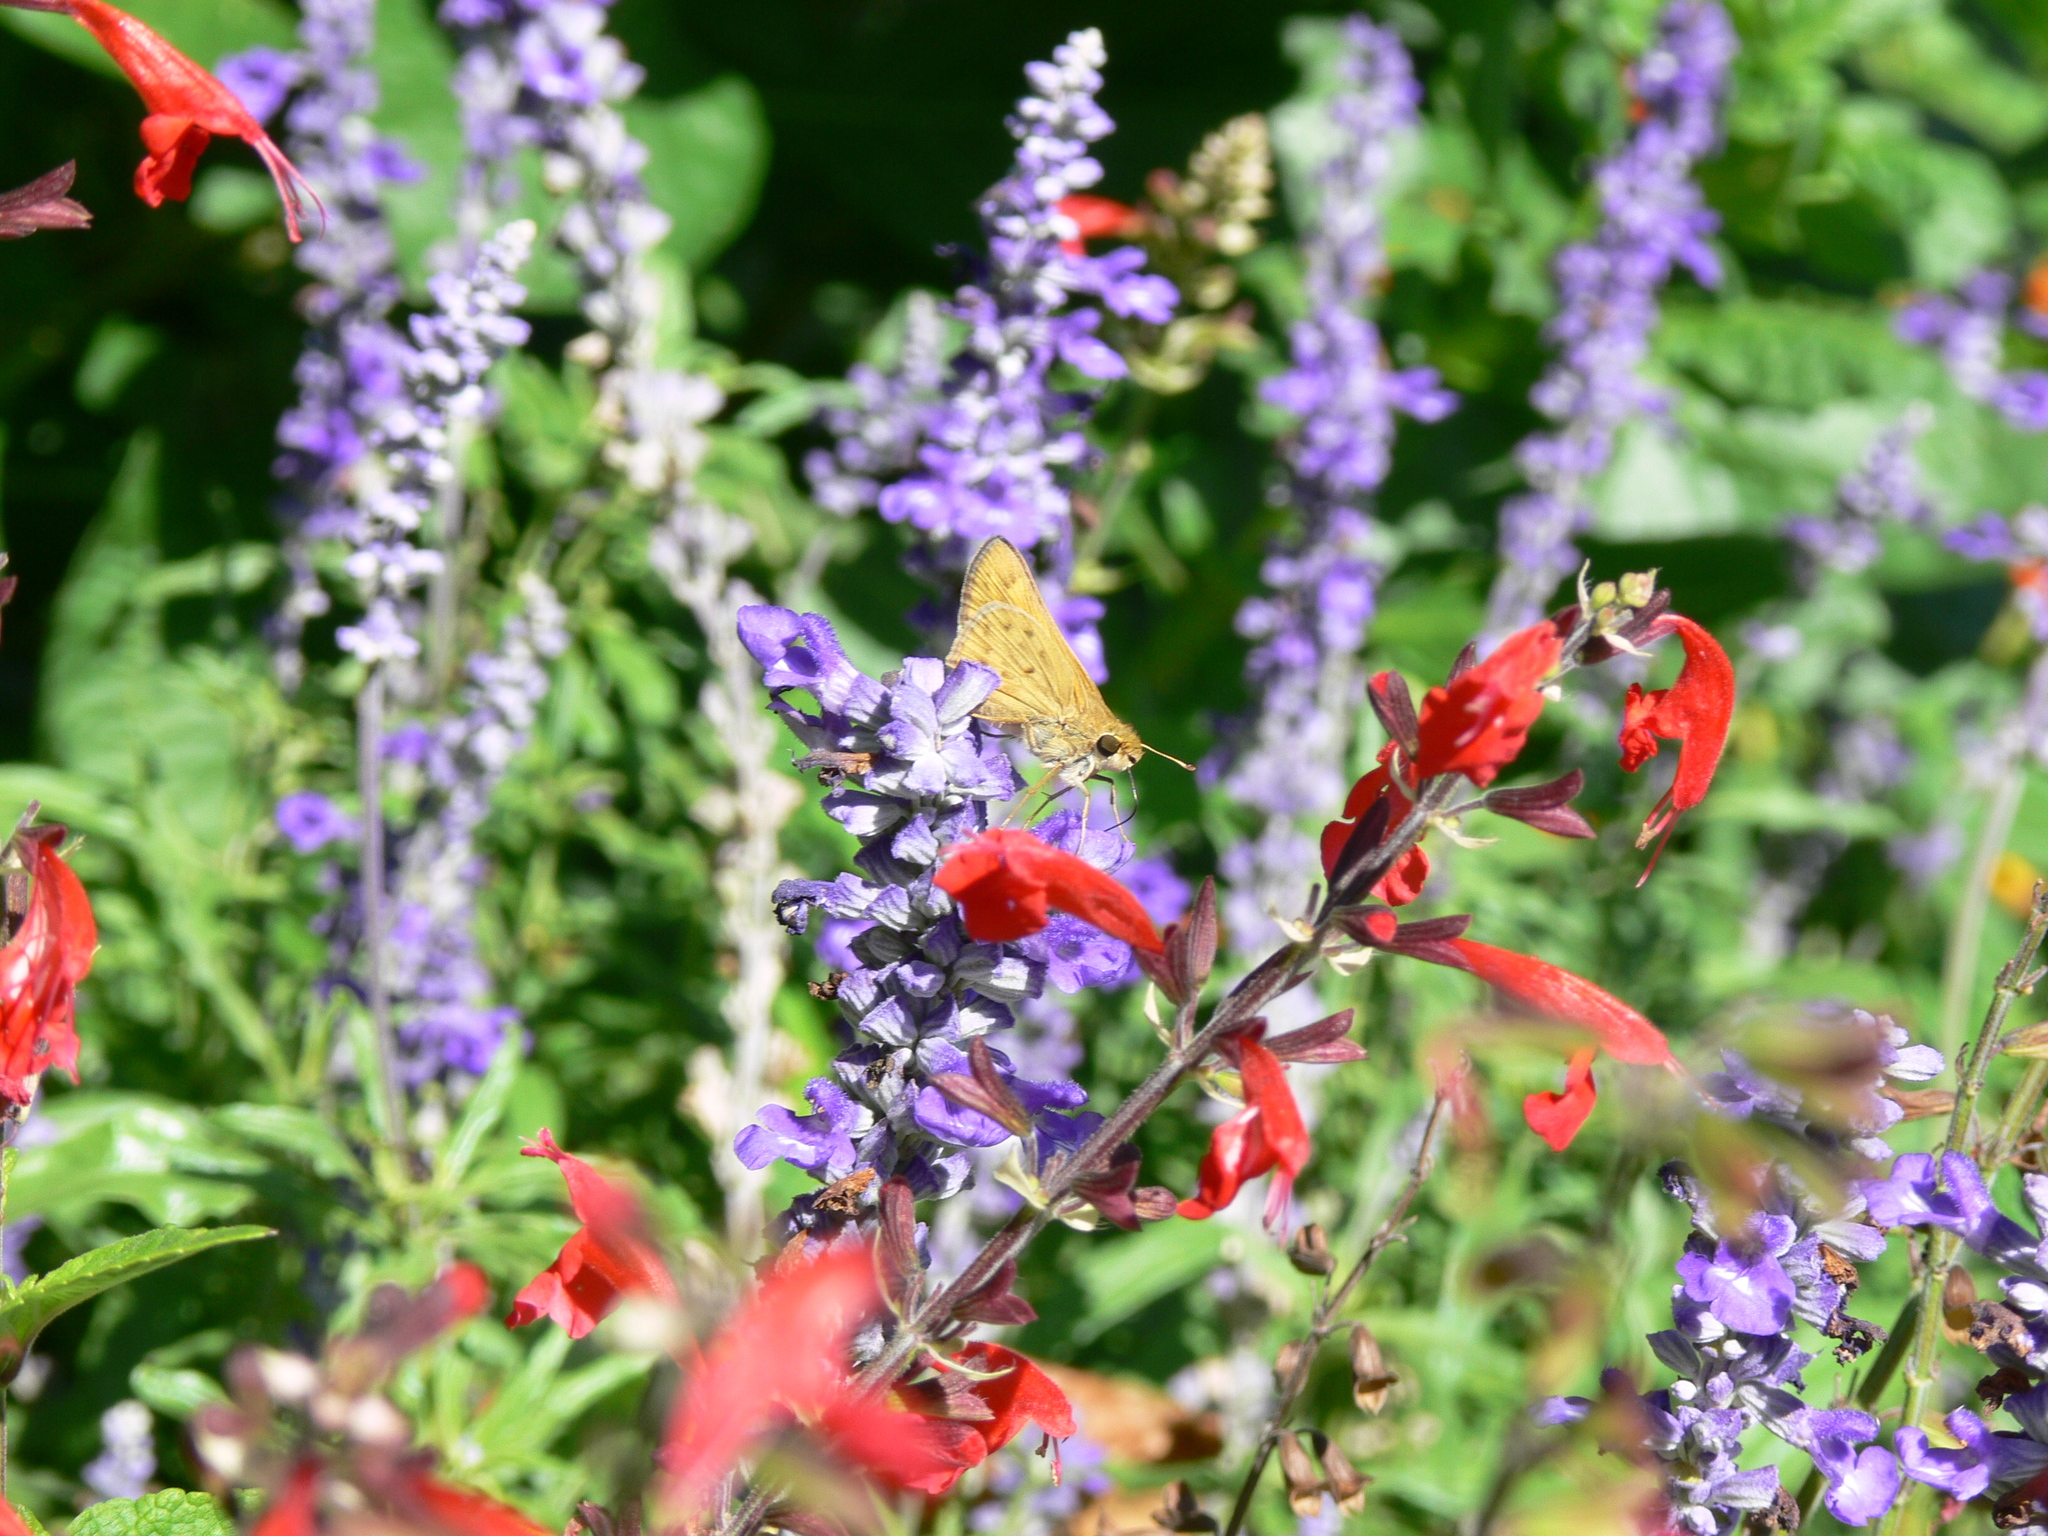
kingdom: Animalia
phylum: Arthropoda
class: Insecta
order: Lepidoptera
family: Hesperiidae
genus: Hylephila
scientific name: Hylephila phyleus
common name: Fiery skipper
